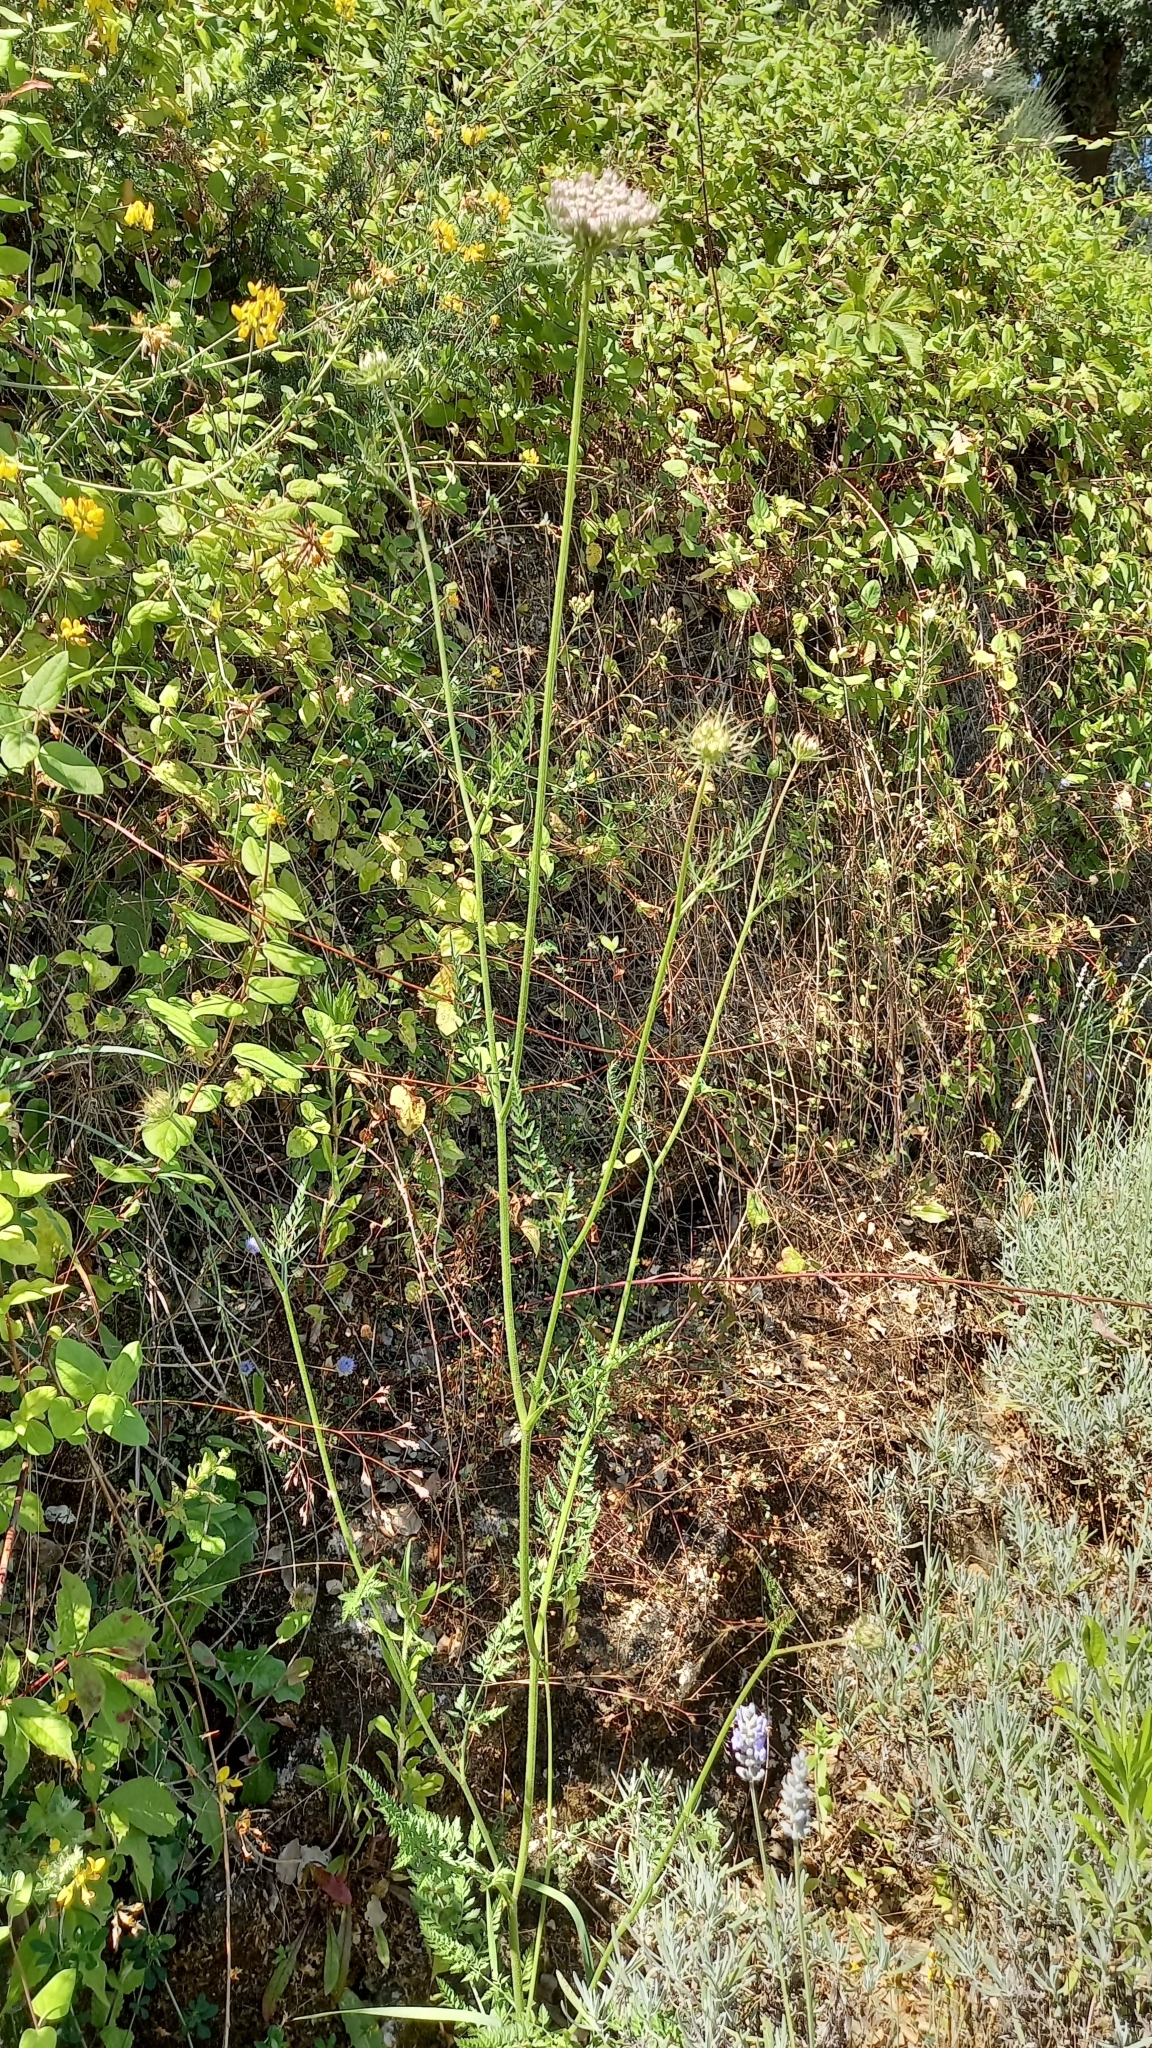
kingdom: Plantae
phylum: Tracheophyta
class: Magnoliopsida
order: Apiales
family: Apiaceae
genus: Daucus
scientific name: Daucus carota
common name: Wild carrot
